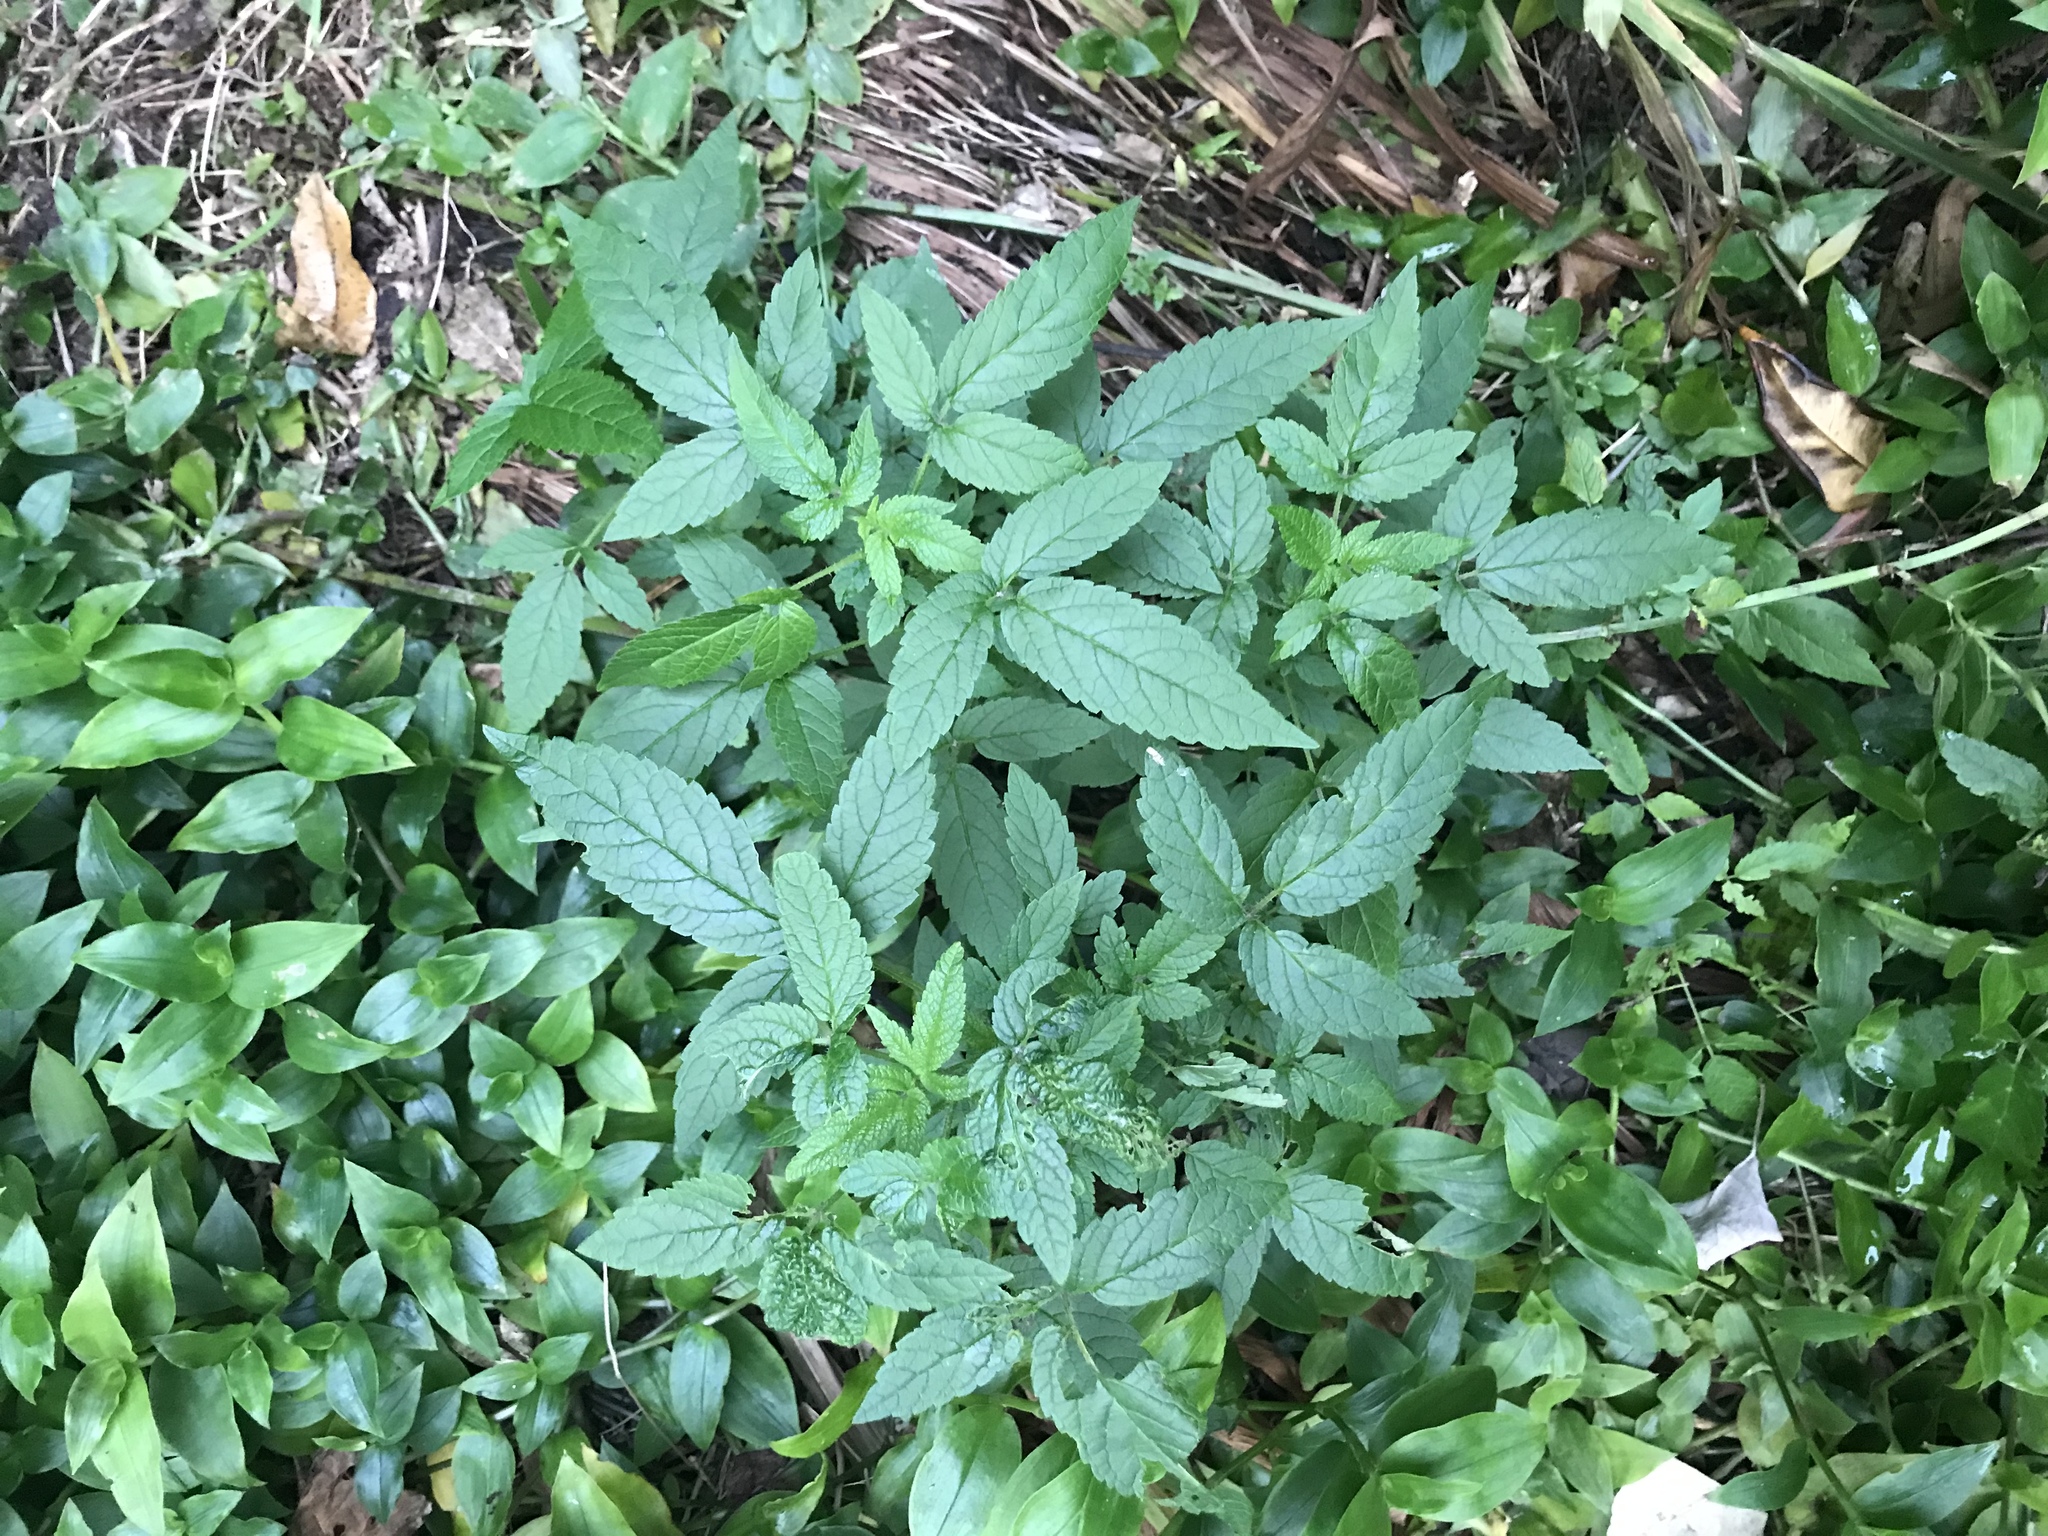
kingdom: Plantae
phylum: Tracheophyta
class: Magnoliopsida
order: Lamiales
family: Lamiaceae
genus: Cedronella
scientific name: Cedronella canariensis
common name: Canary islands balm
